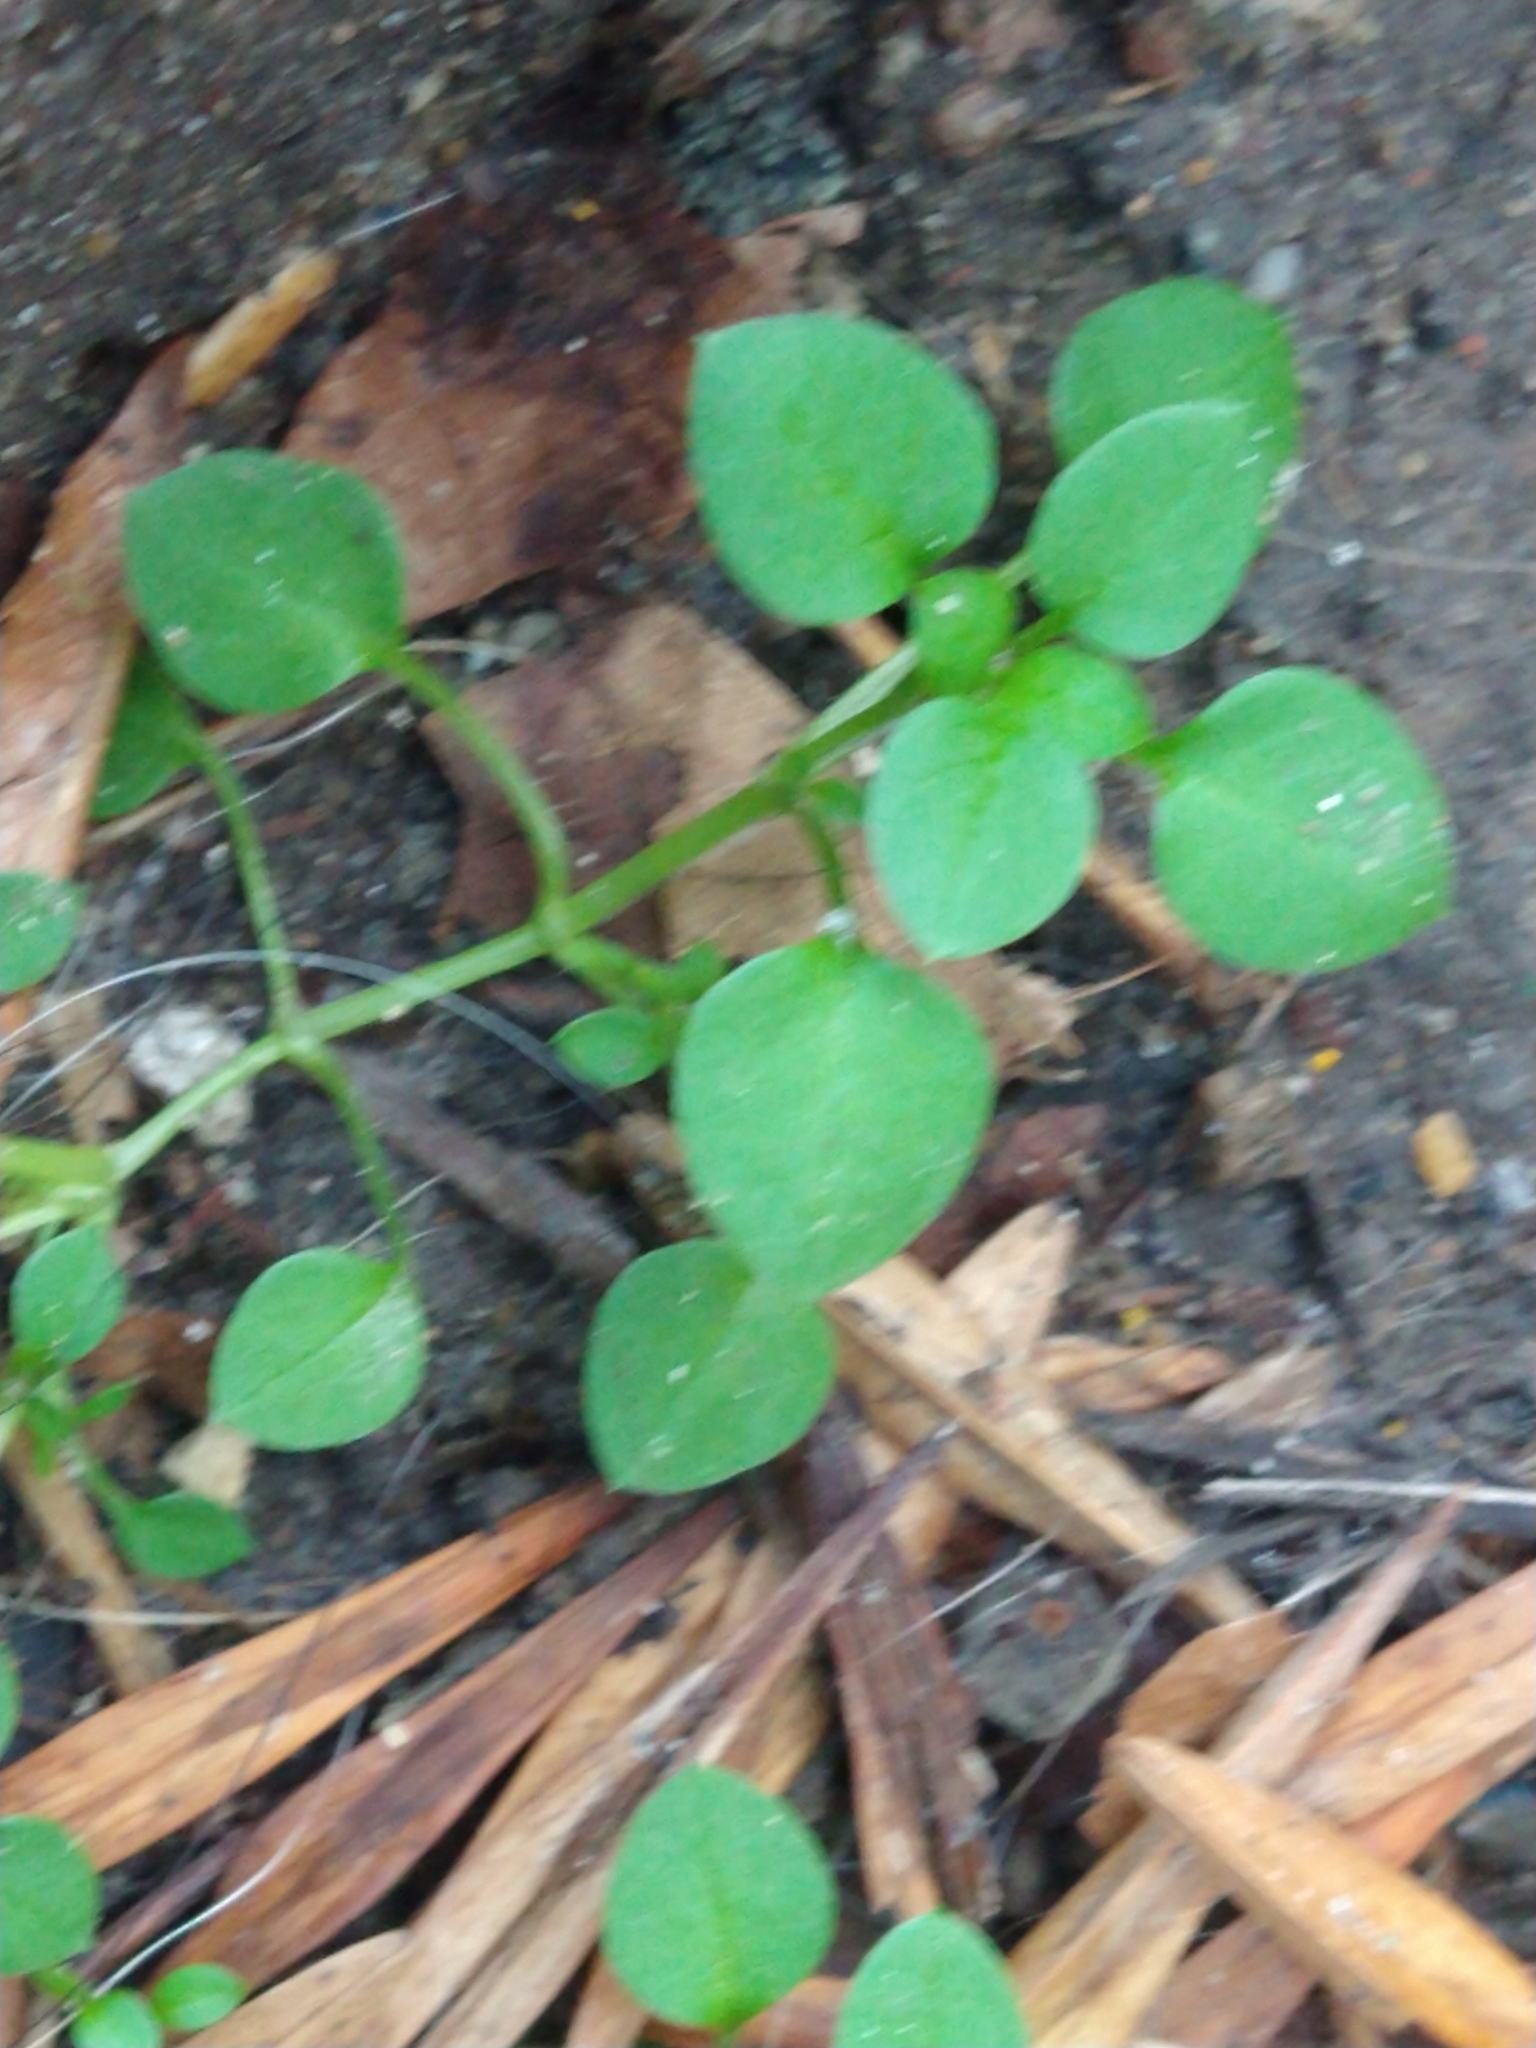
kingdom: Plantae
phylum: Tracheophyta
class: Magnoliopsida
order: Caryophyllales
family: Caryophyllaceae
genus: Stellaria
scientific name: Stellaria media
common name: Common chickweed
